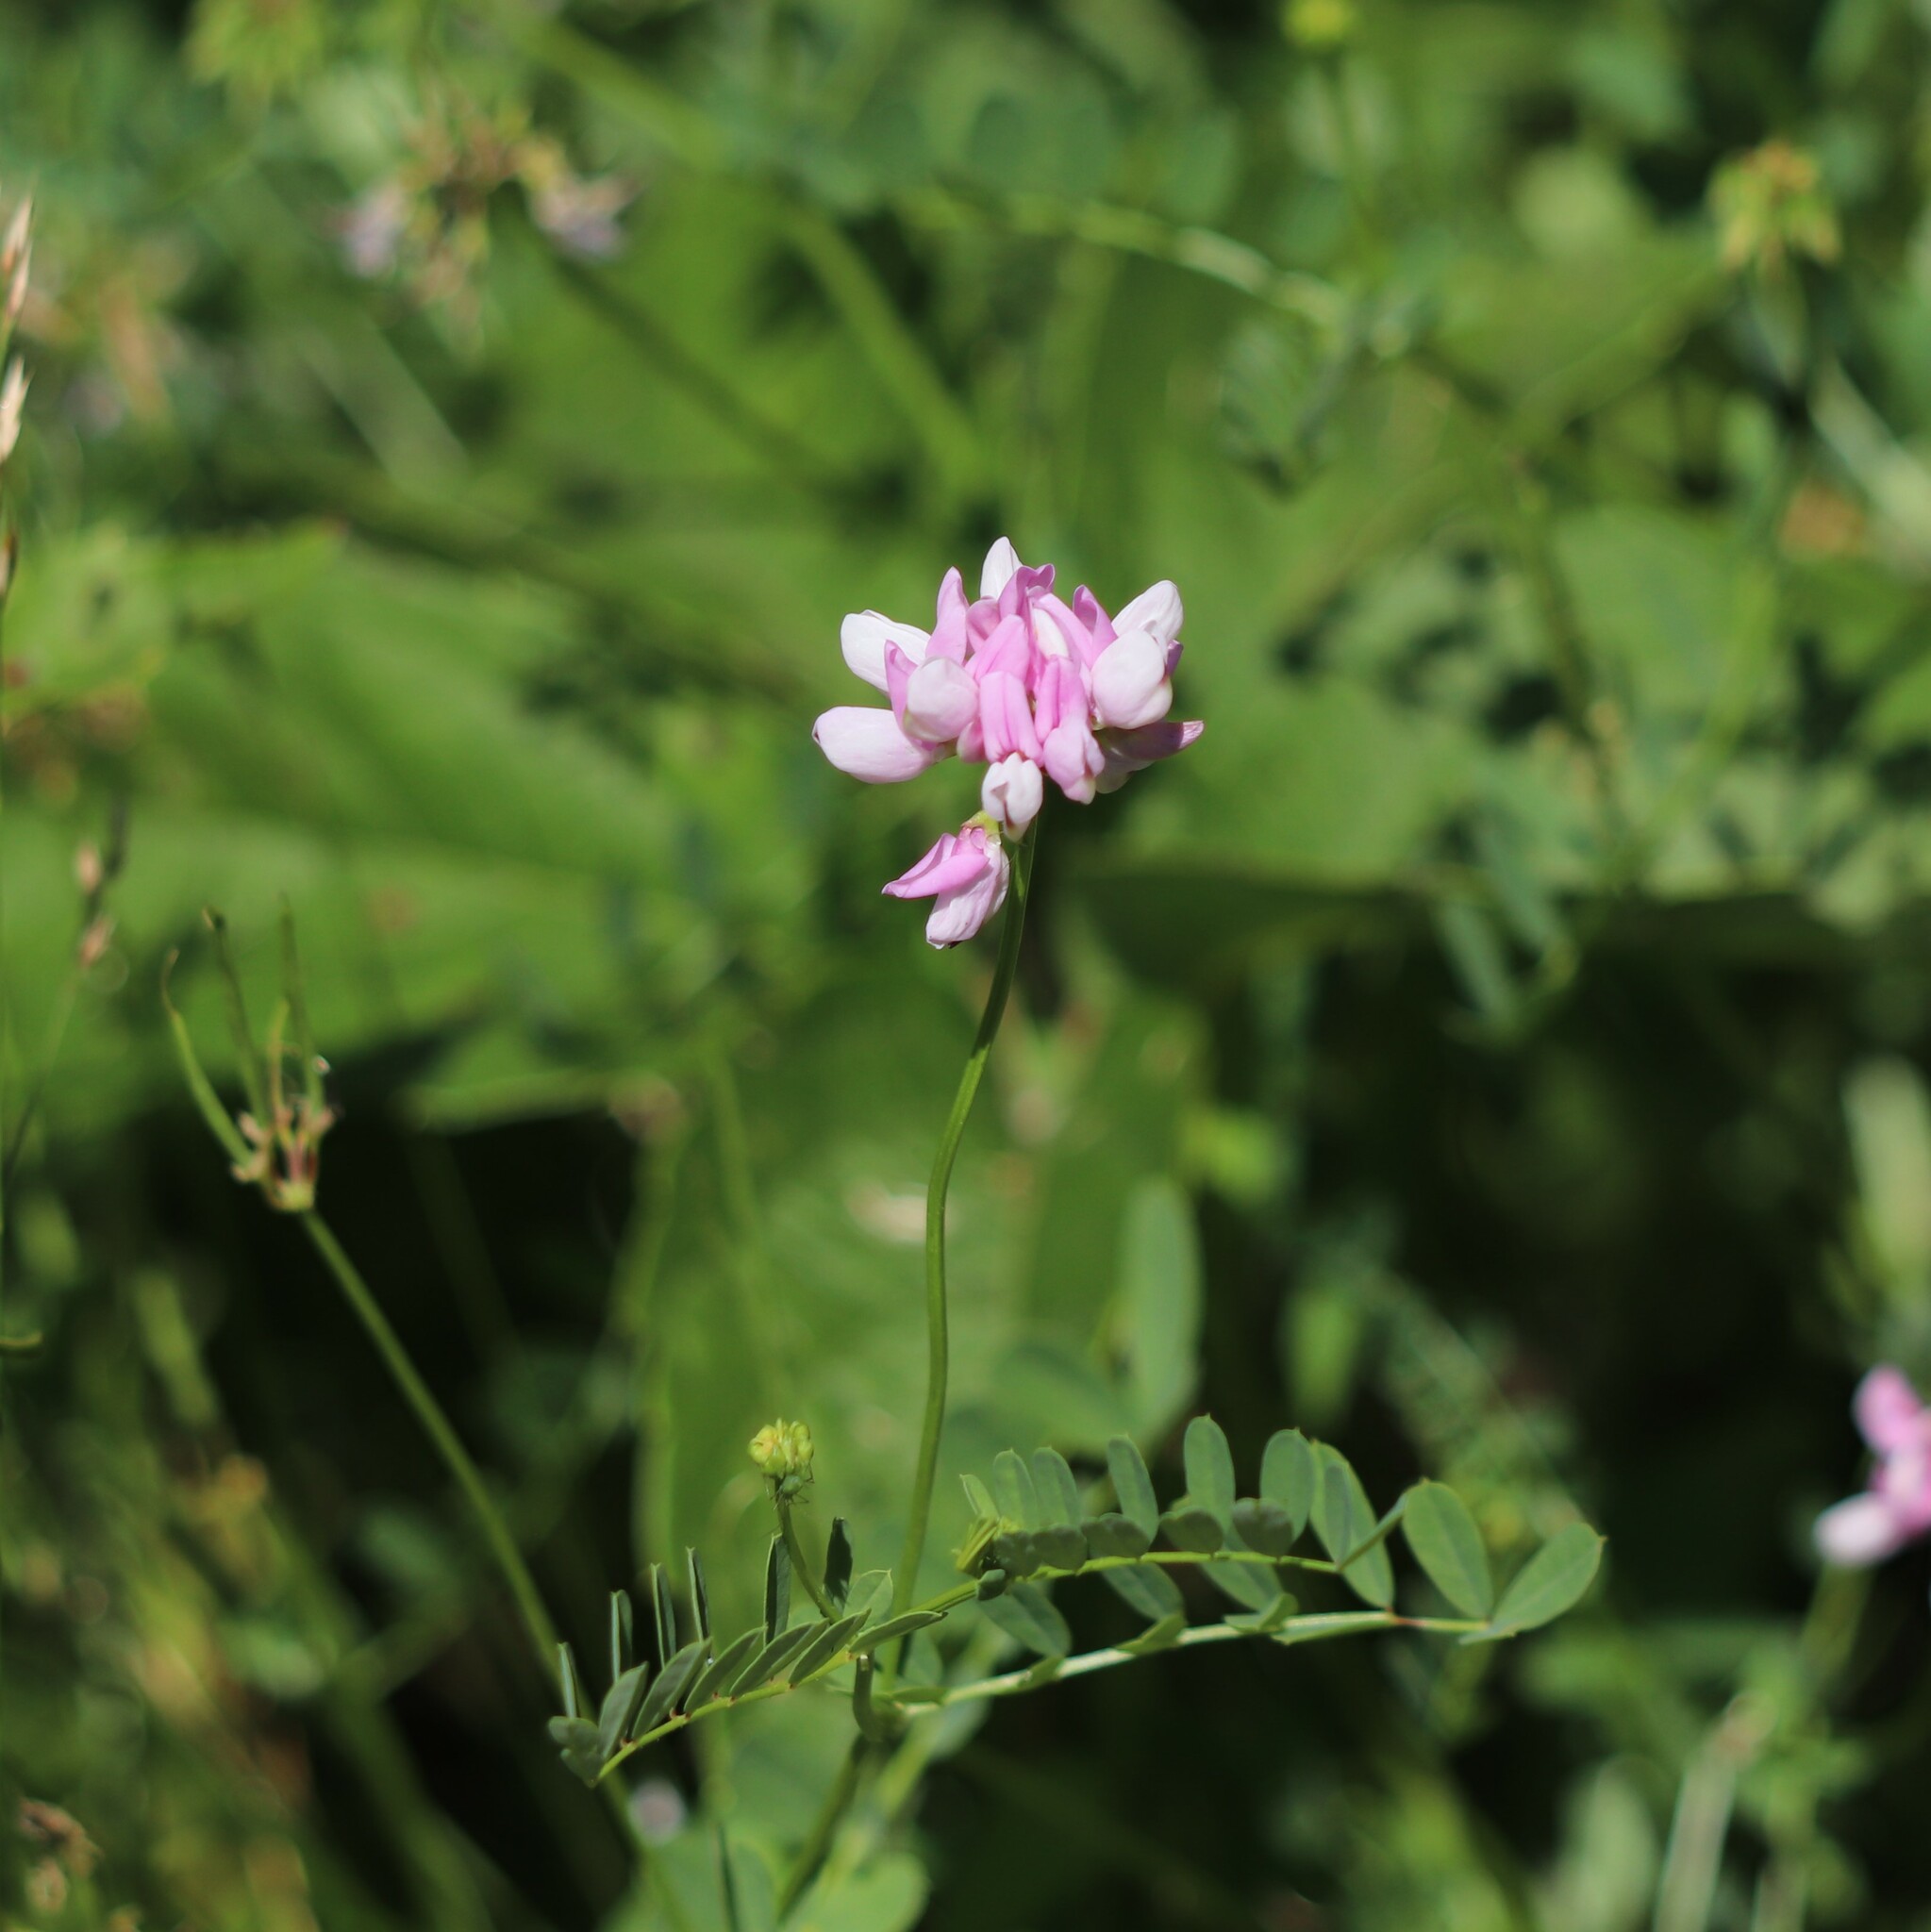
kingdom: Plantae
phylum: Tracheophyta
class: Magnoliopsida
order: Fabales
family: Fabaceae
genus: Coronilla
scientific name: Coronilla varia
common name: Crownvetch
